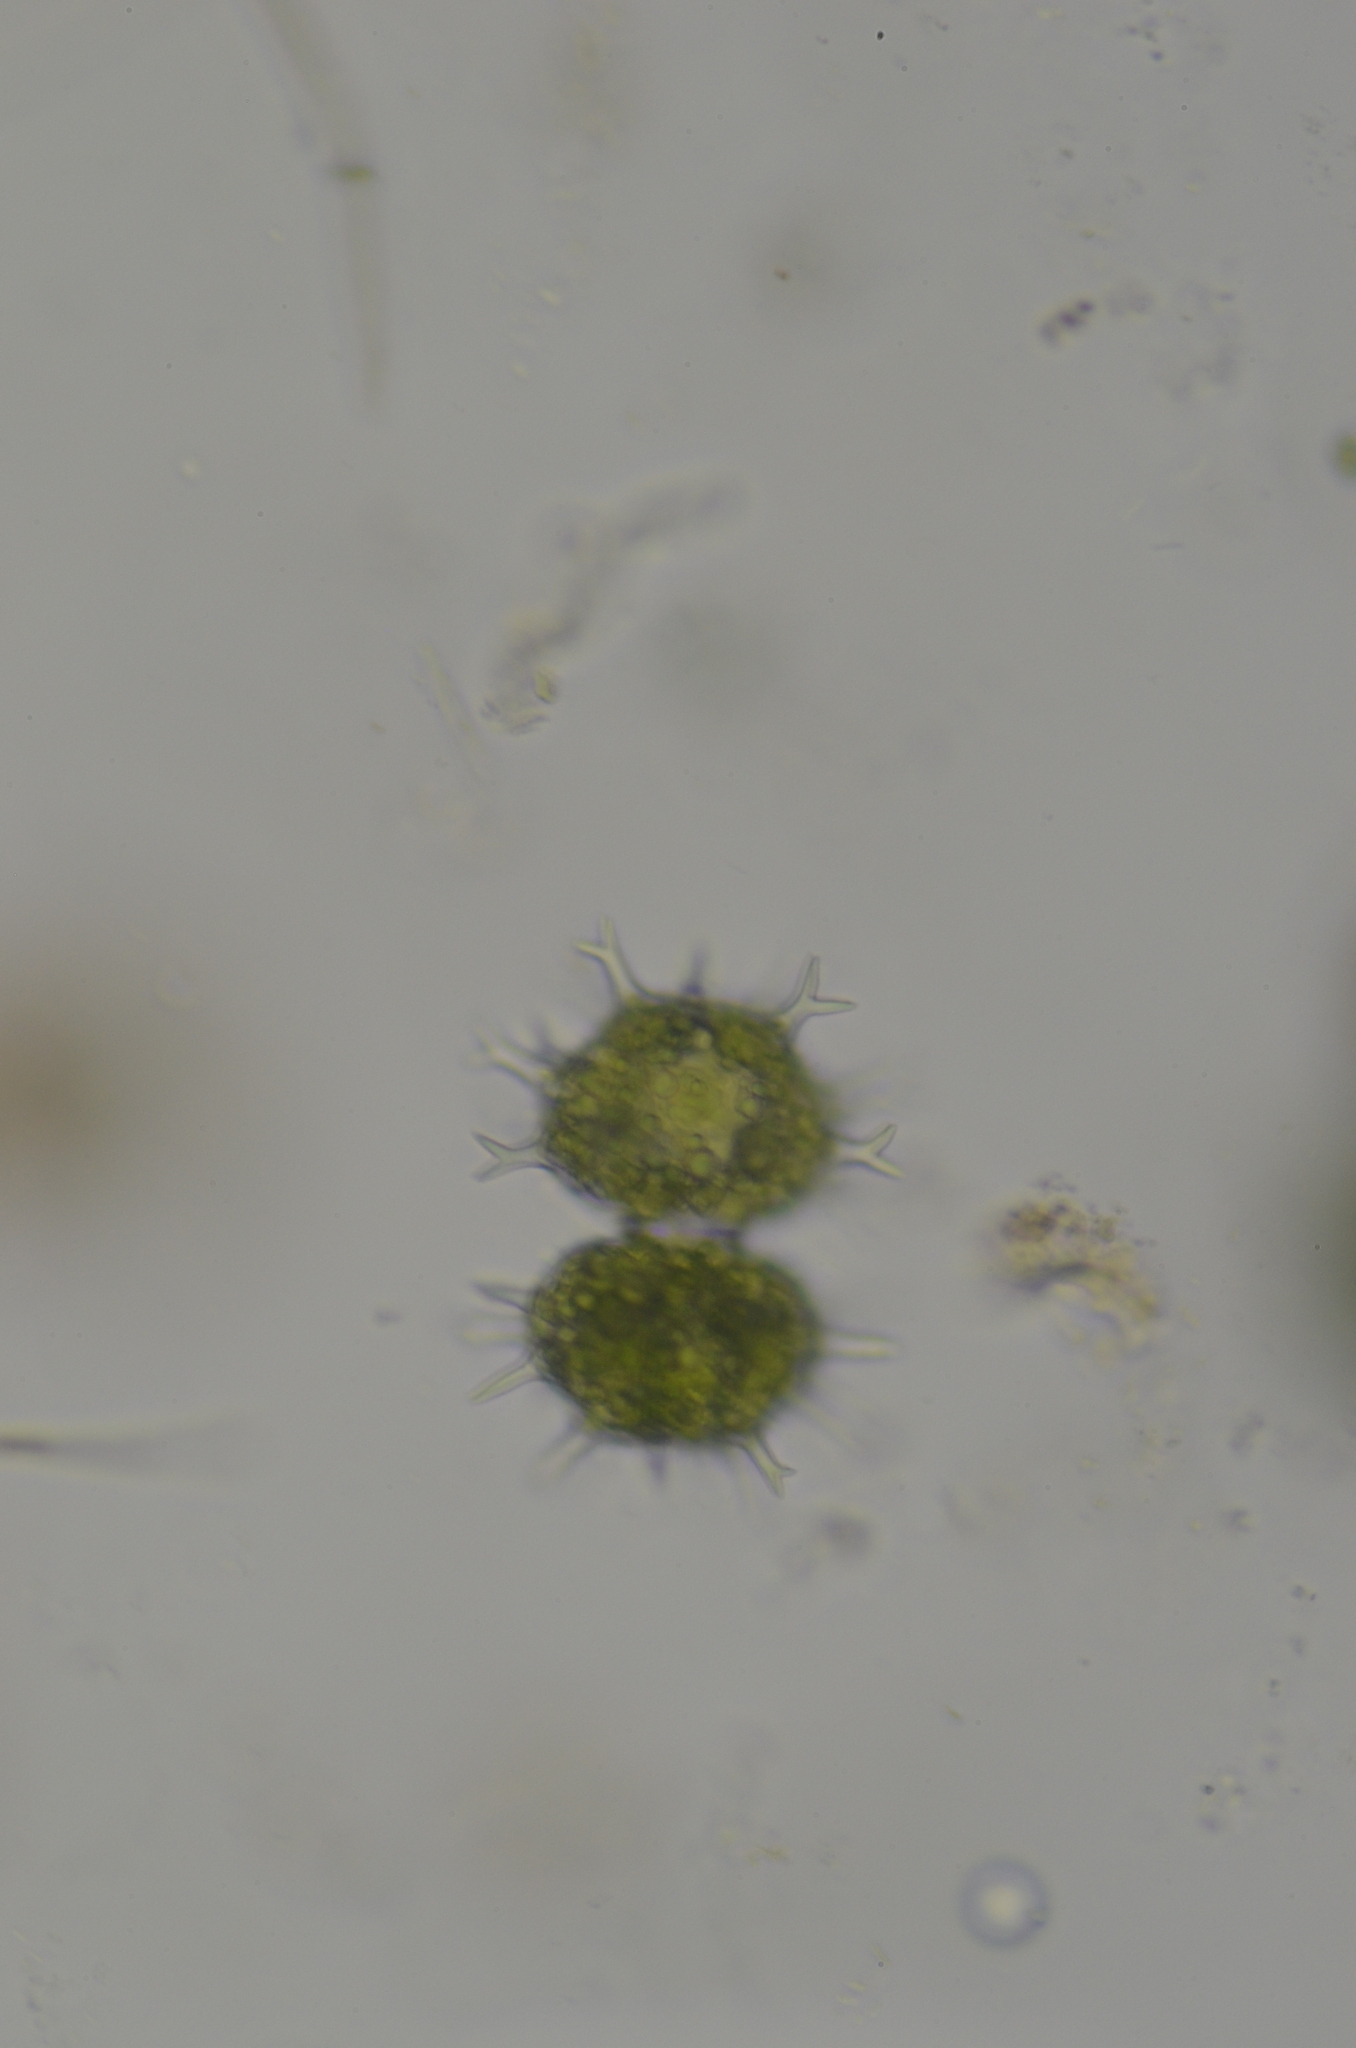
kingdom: Plantae
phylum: Charophyta
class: Conjugatophyceae
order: Desmidiales
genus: Xanthidium
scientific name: Xanthidium armatum
